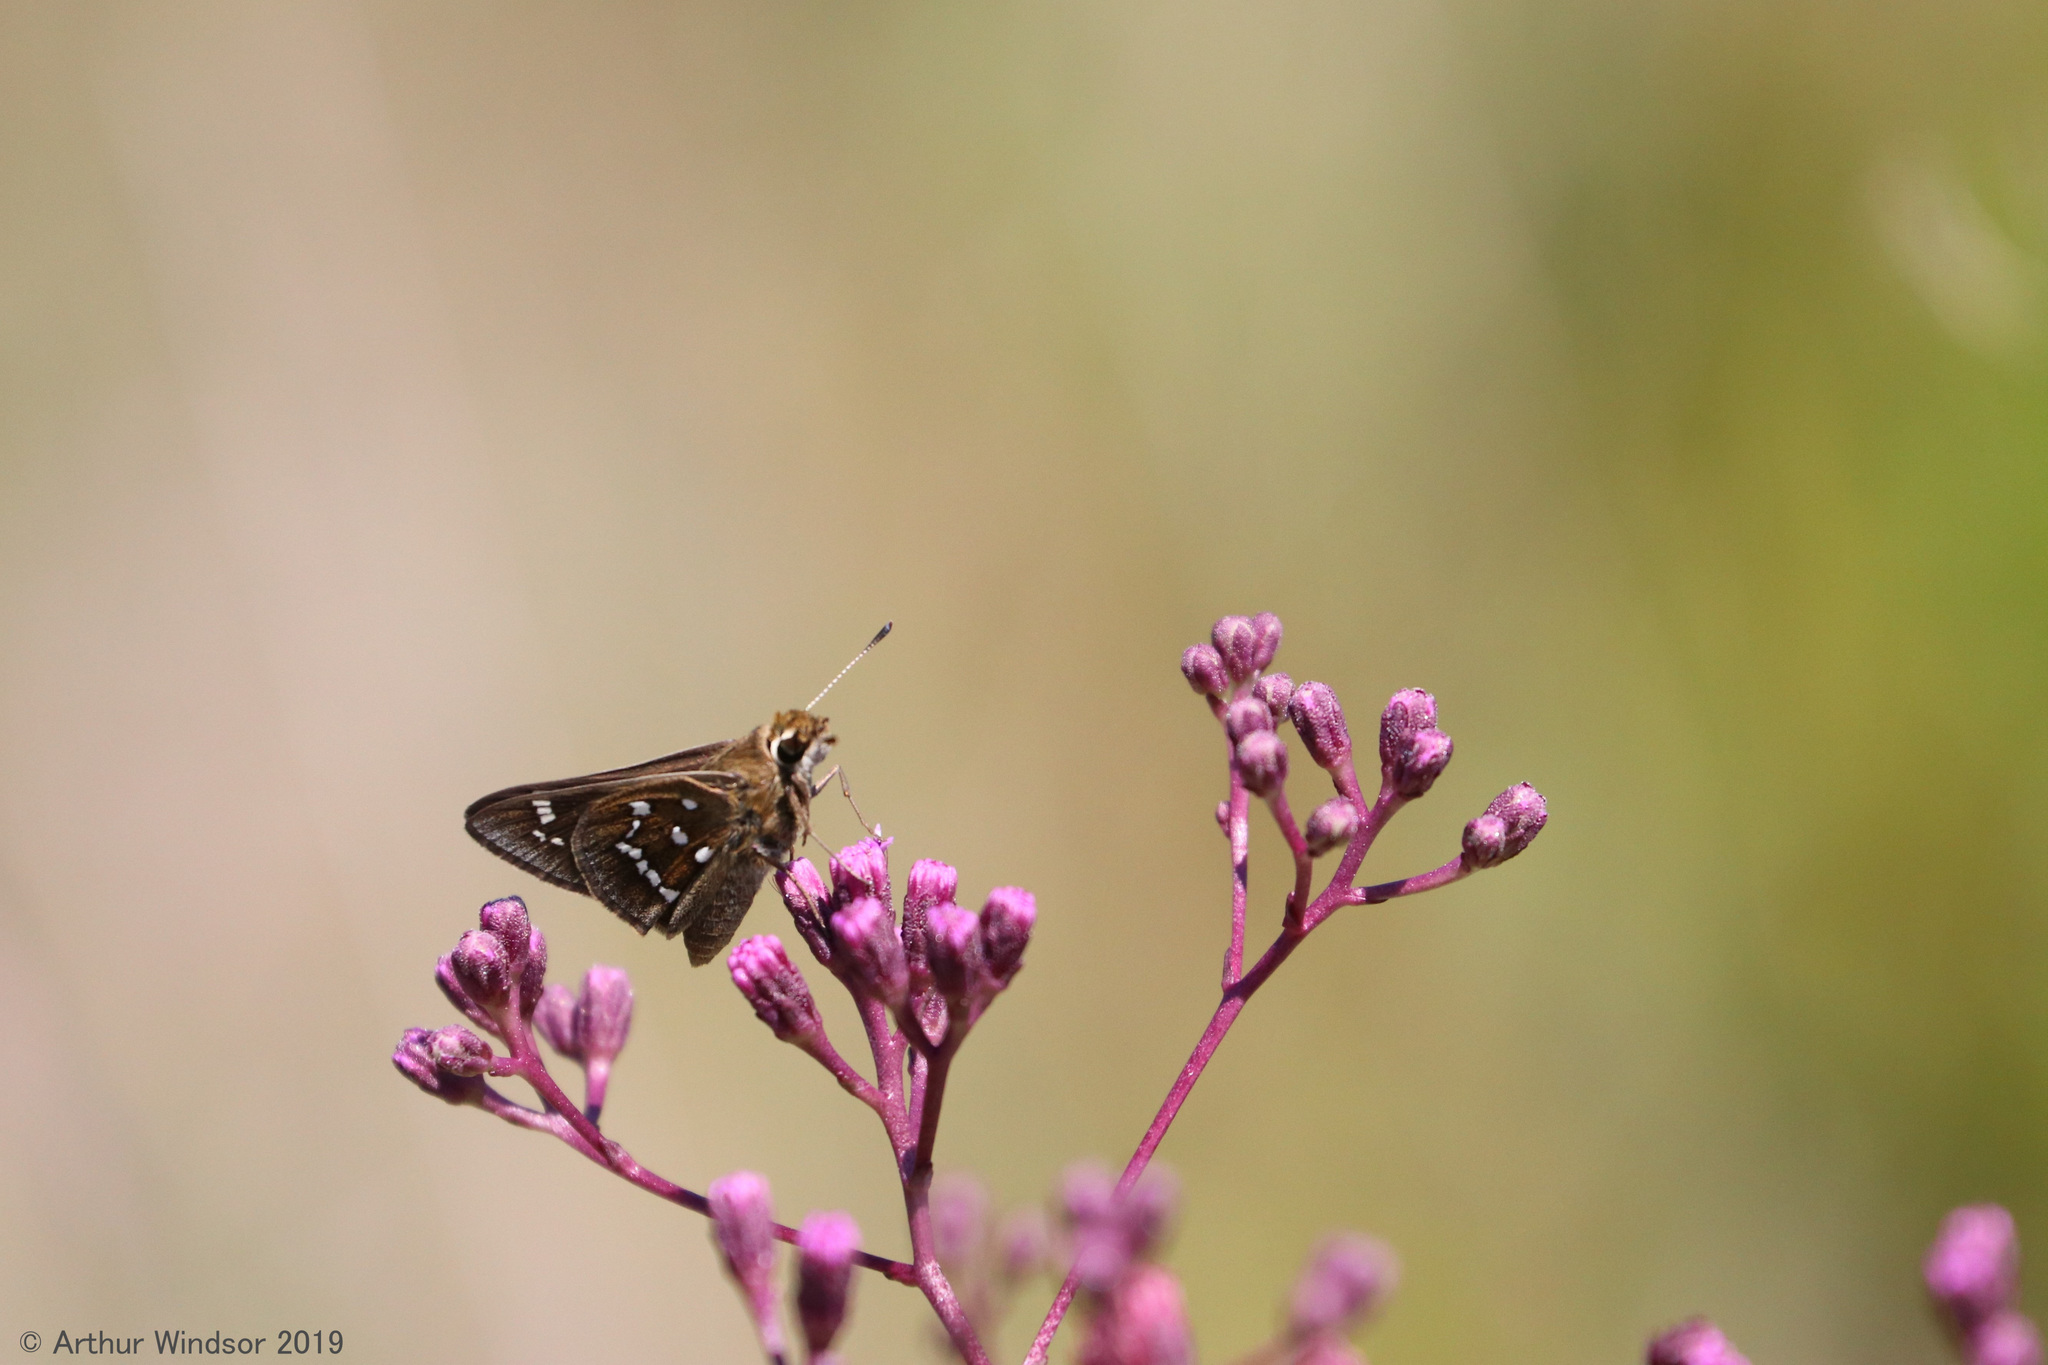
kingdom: Animalia
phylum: Arthropoda
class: Insecta
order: Lepidoptera
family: Hesperiidae
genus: Atrytonopsis
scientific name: Atrytonopsis loammi
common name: Loammi skipper
